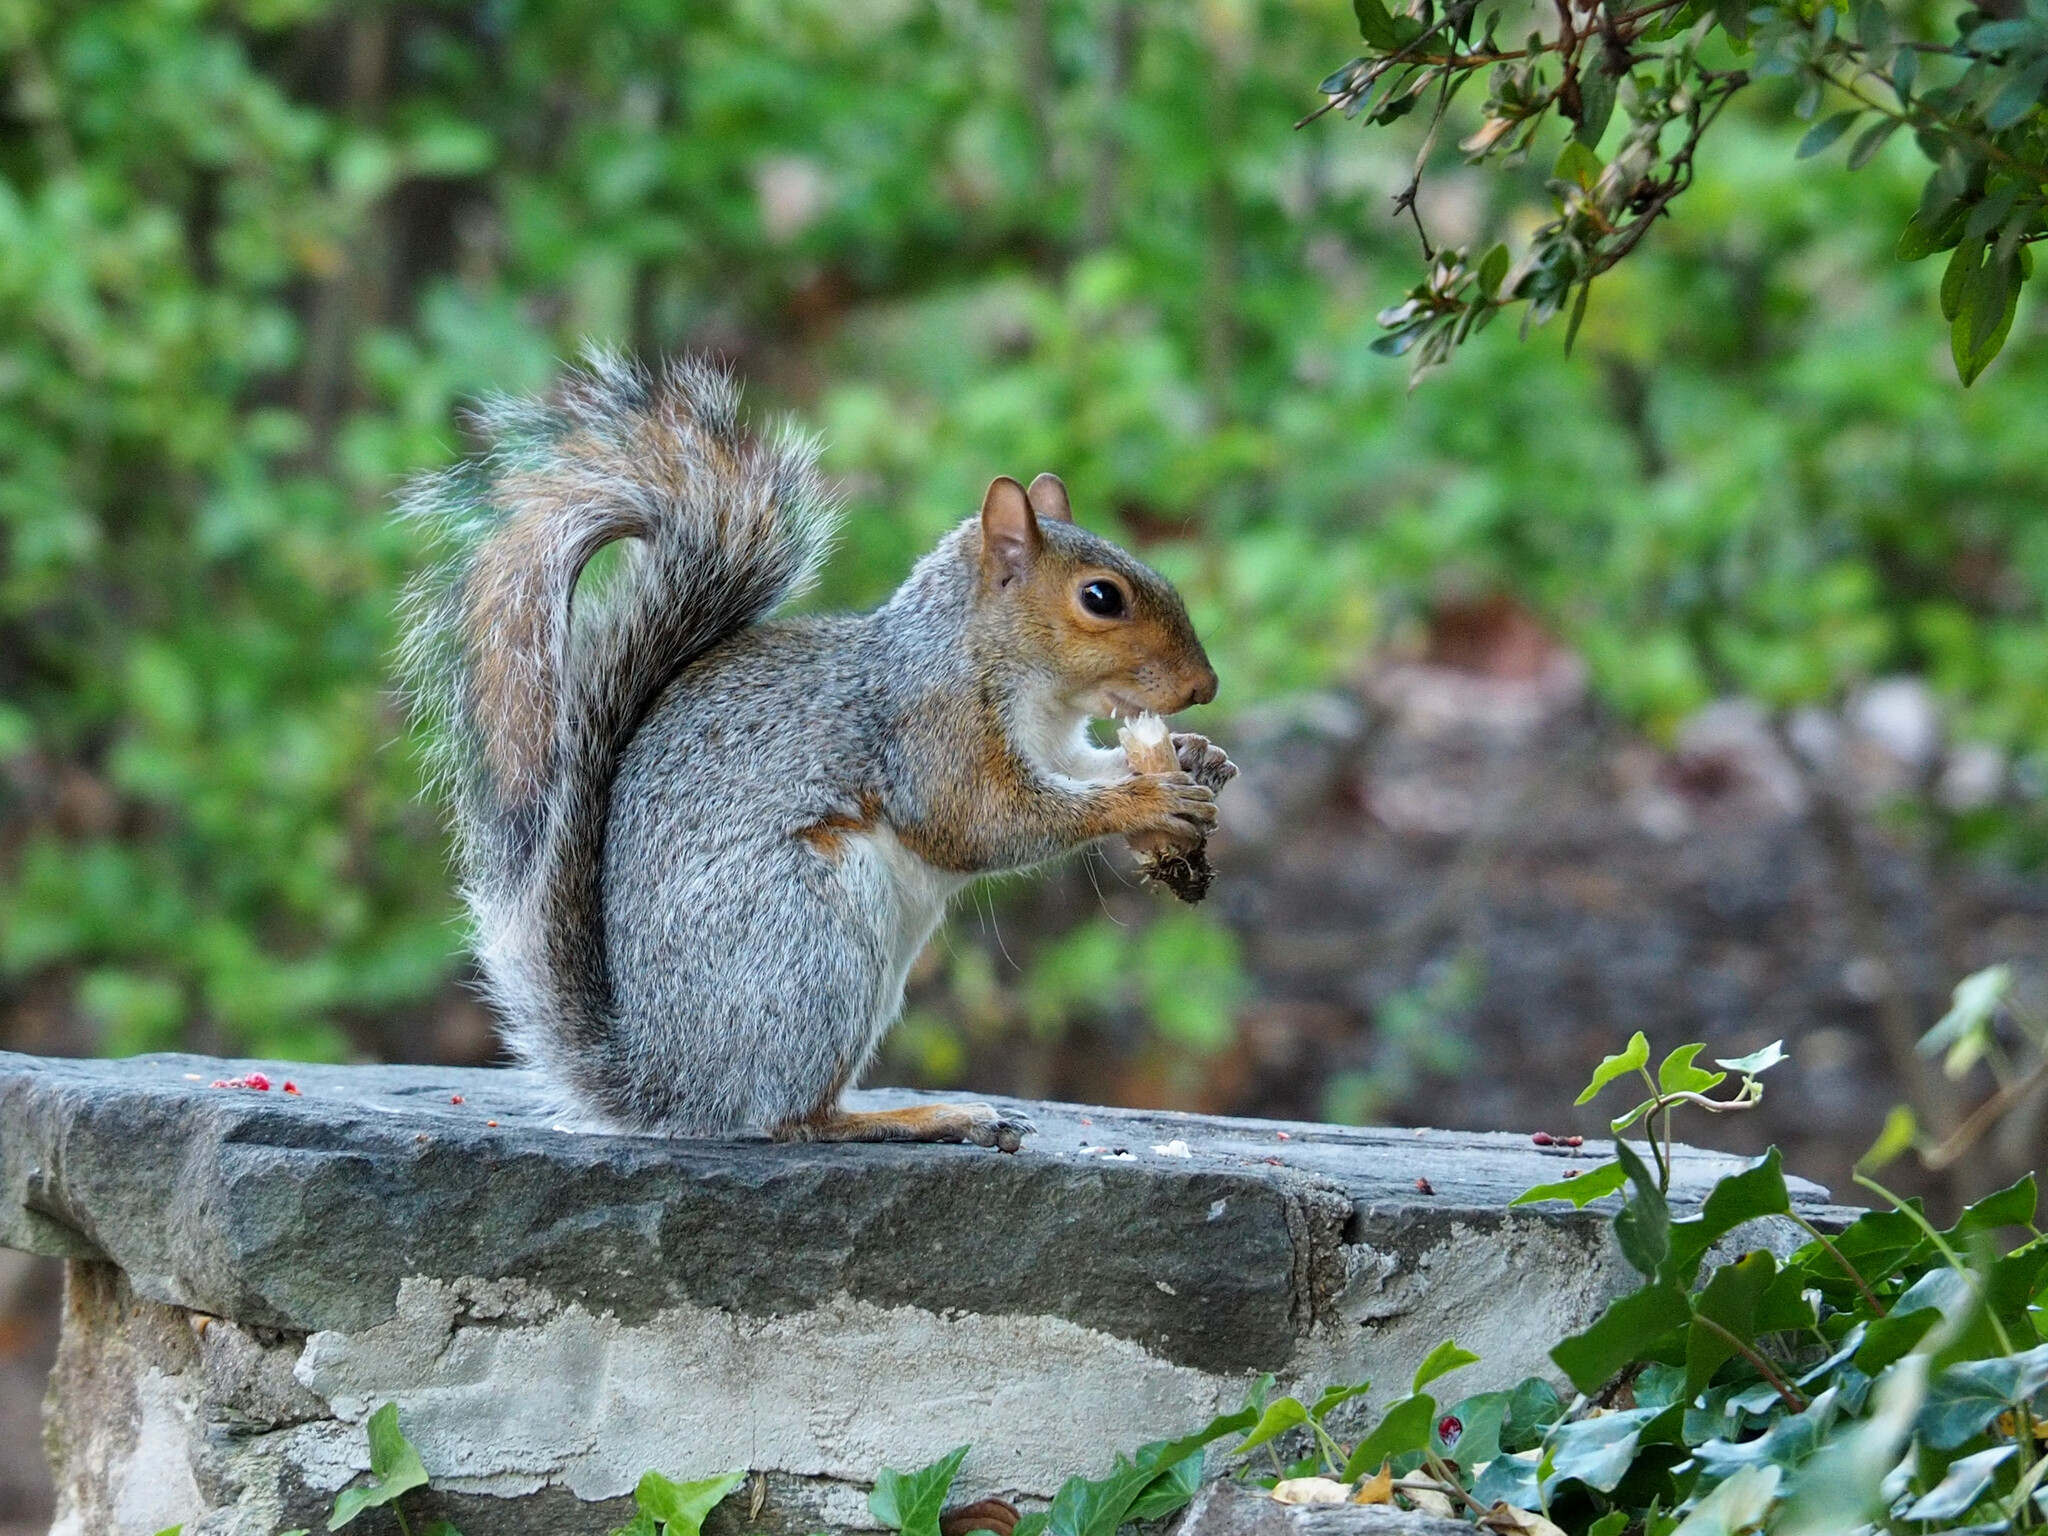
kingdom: Animalia
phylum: Chordata
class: Mammalia
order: Rodentia
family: Sciuridae
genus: Sciurus
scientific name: Sciurus carolinensis
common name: Eastern gray squirrel
